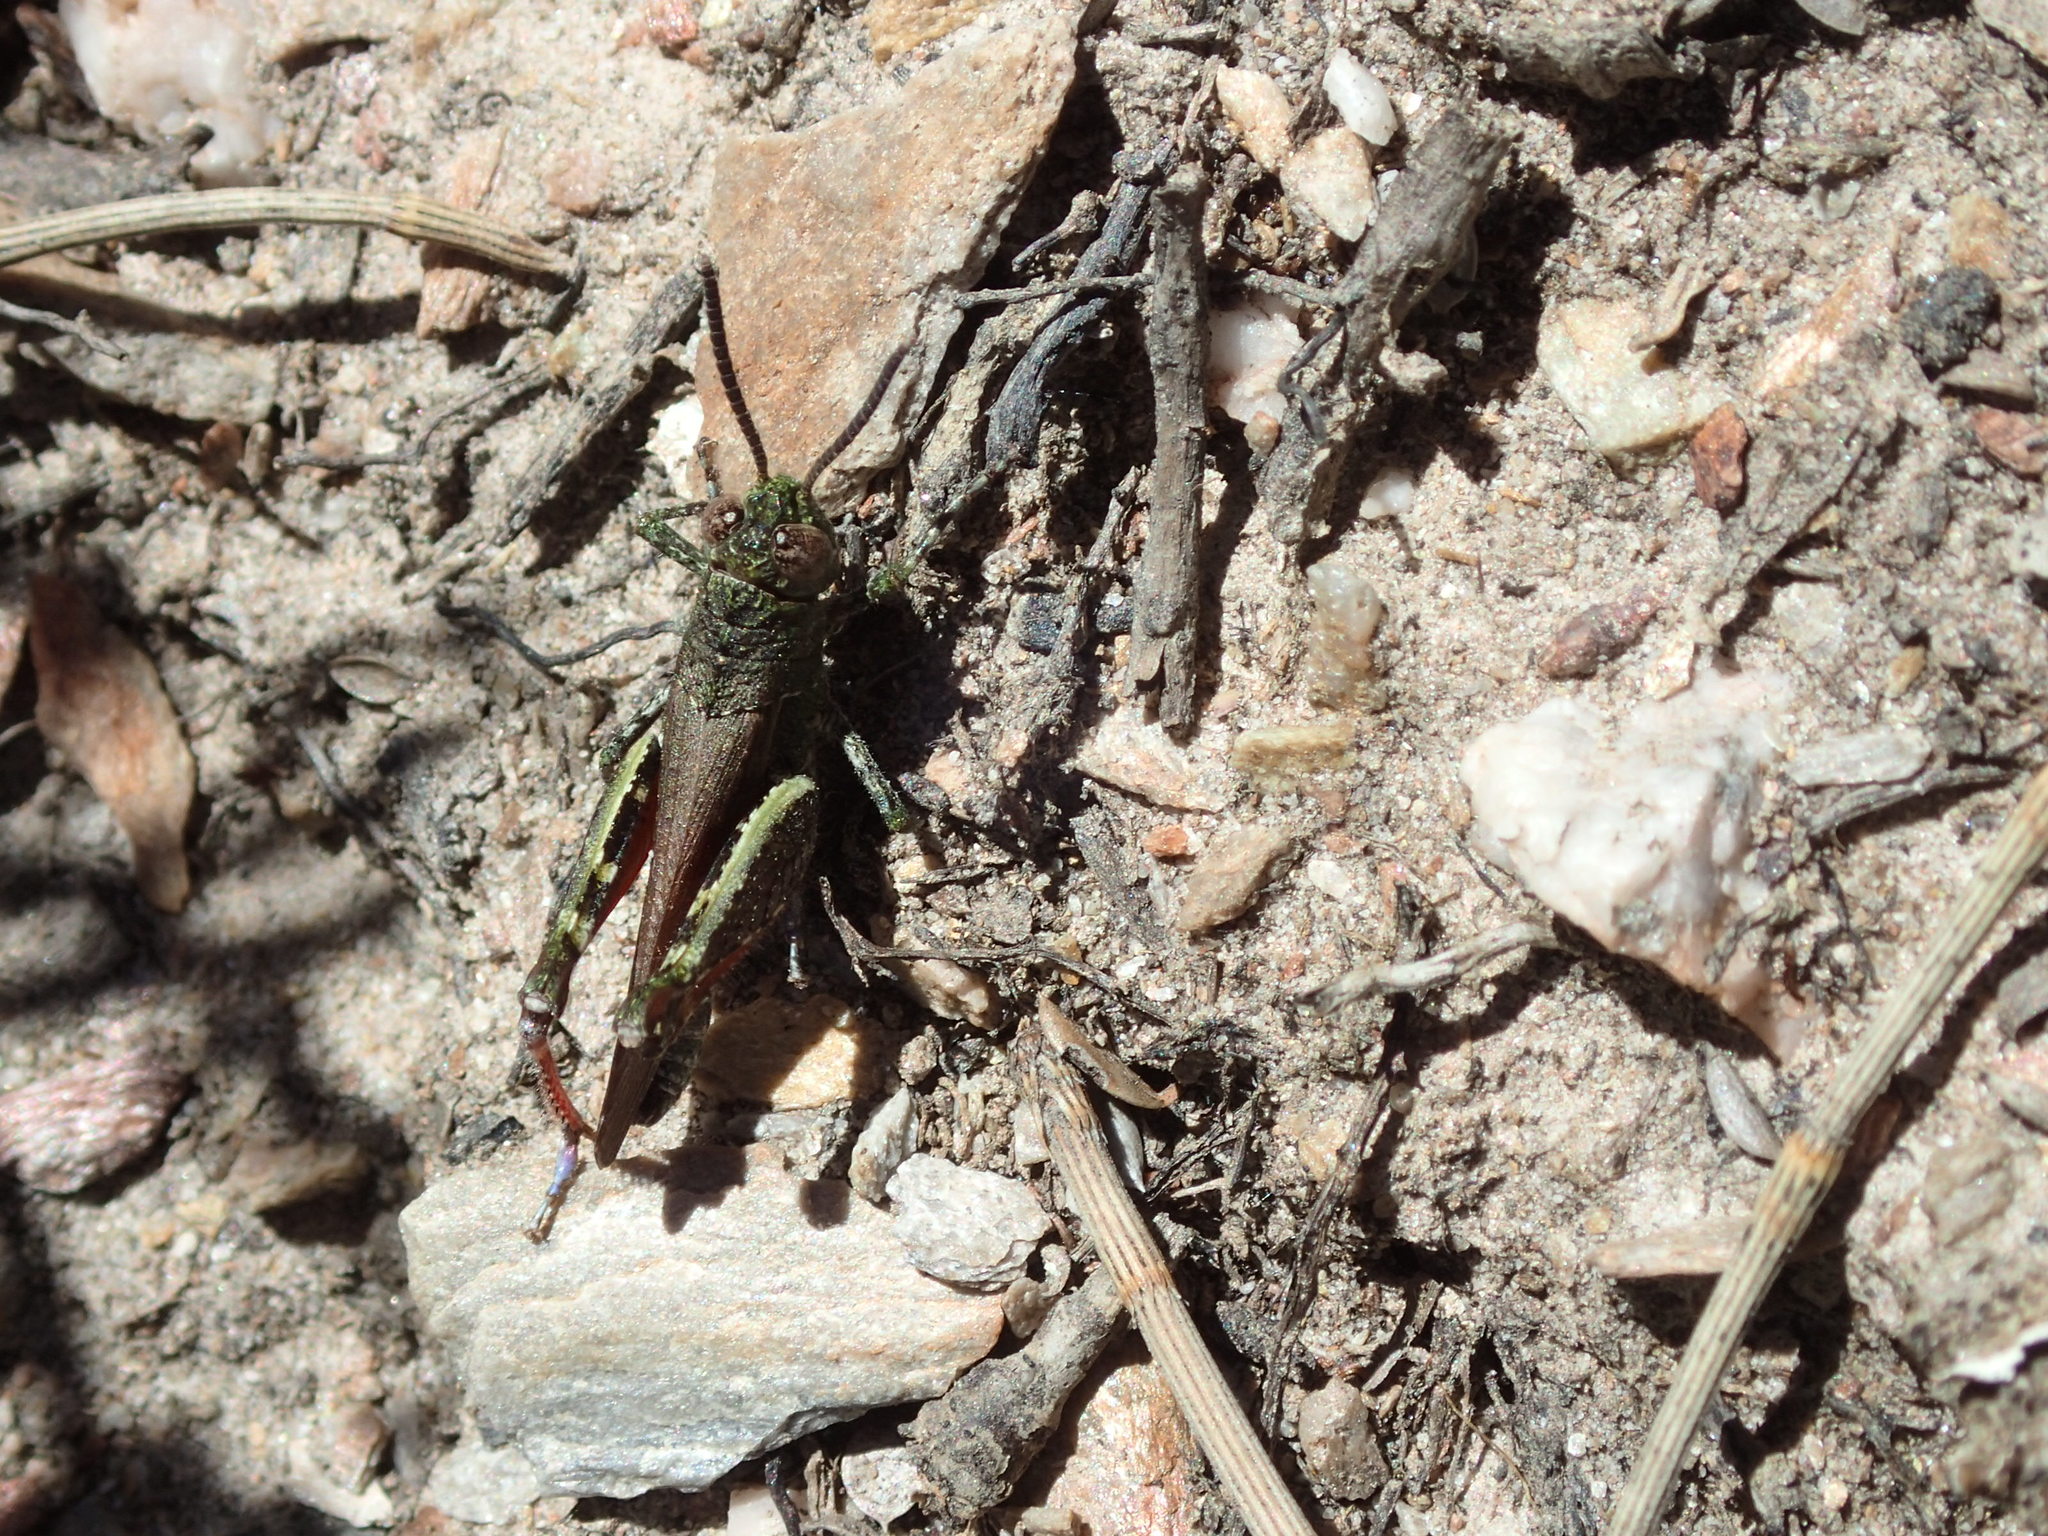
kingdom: Animalia
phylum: Arthropoda
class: Insecta
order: Orthoptera
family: Acrididae
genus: Cirphula
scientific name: Cirphula pyrrhocnemis
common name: Variable cirphula
